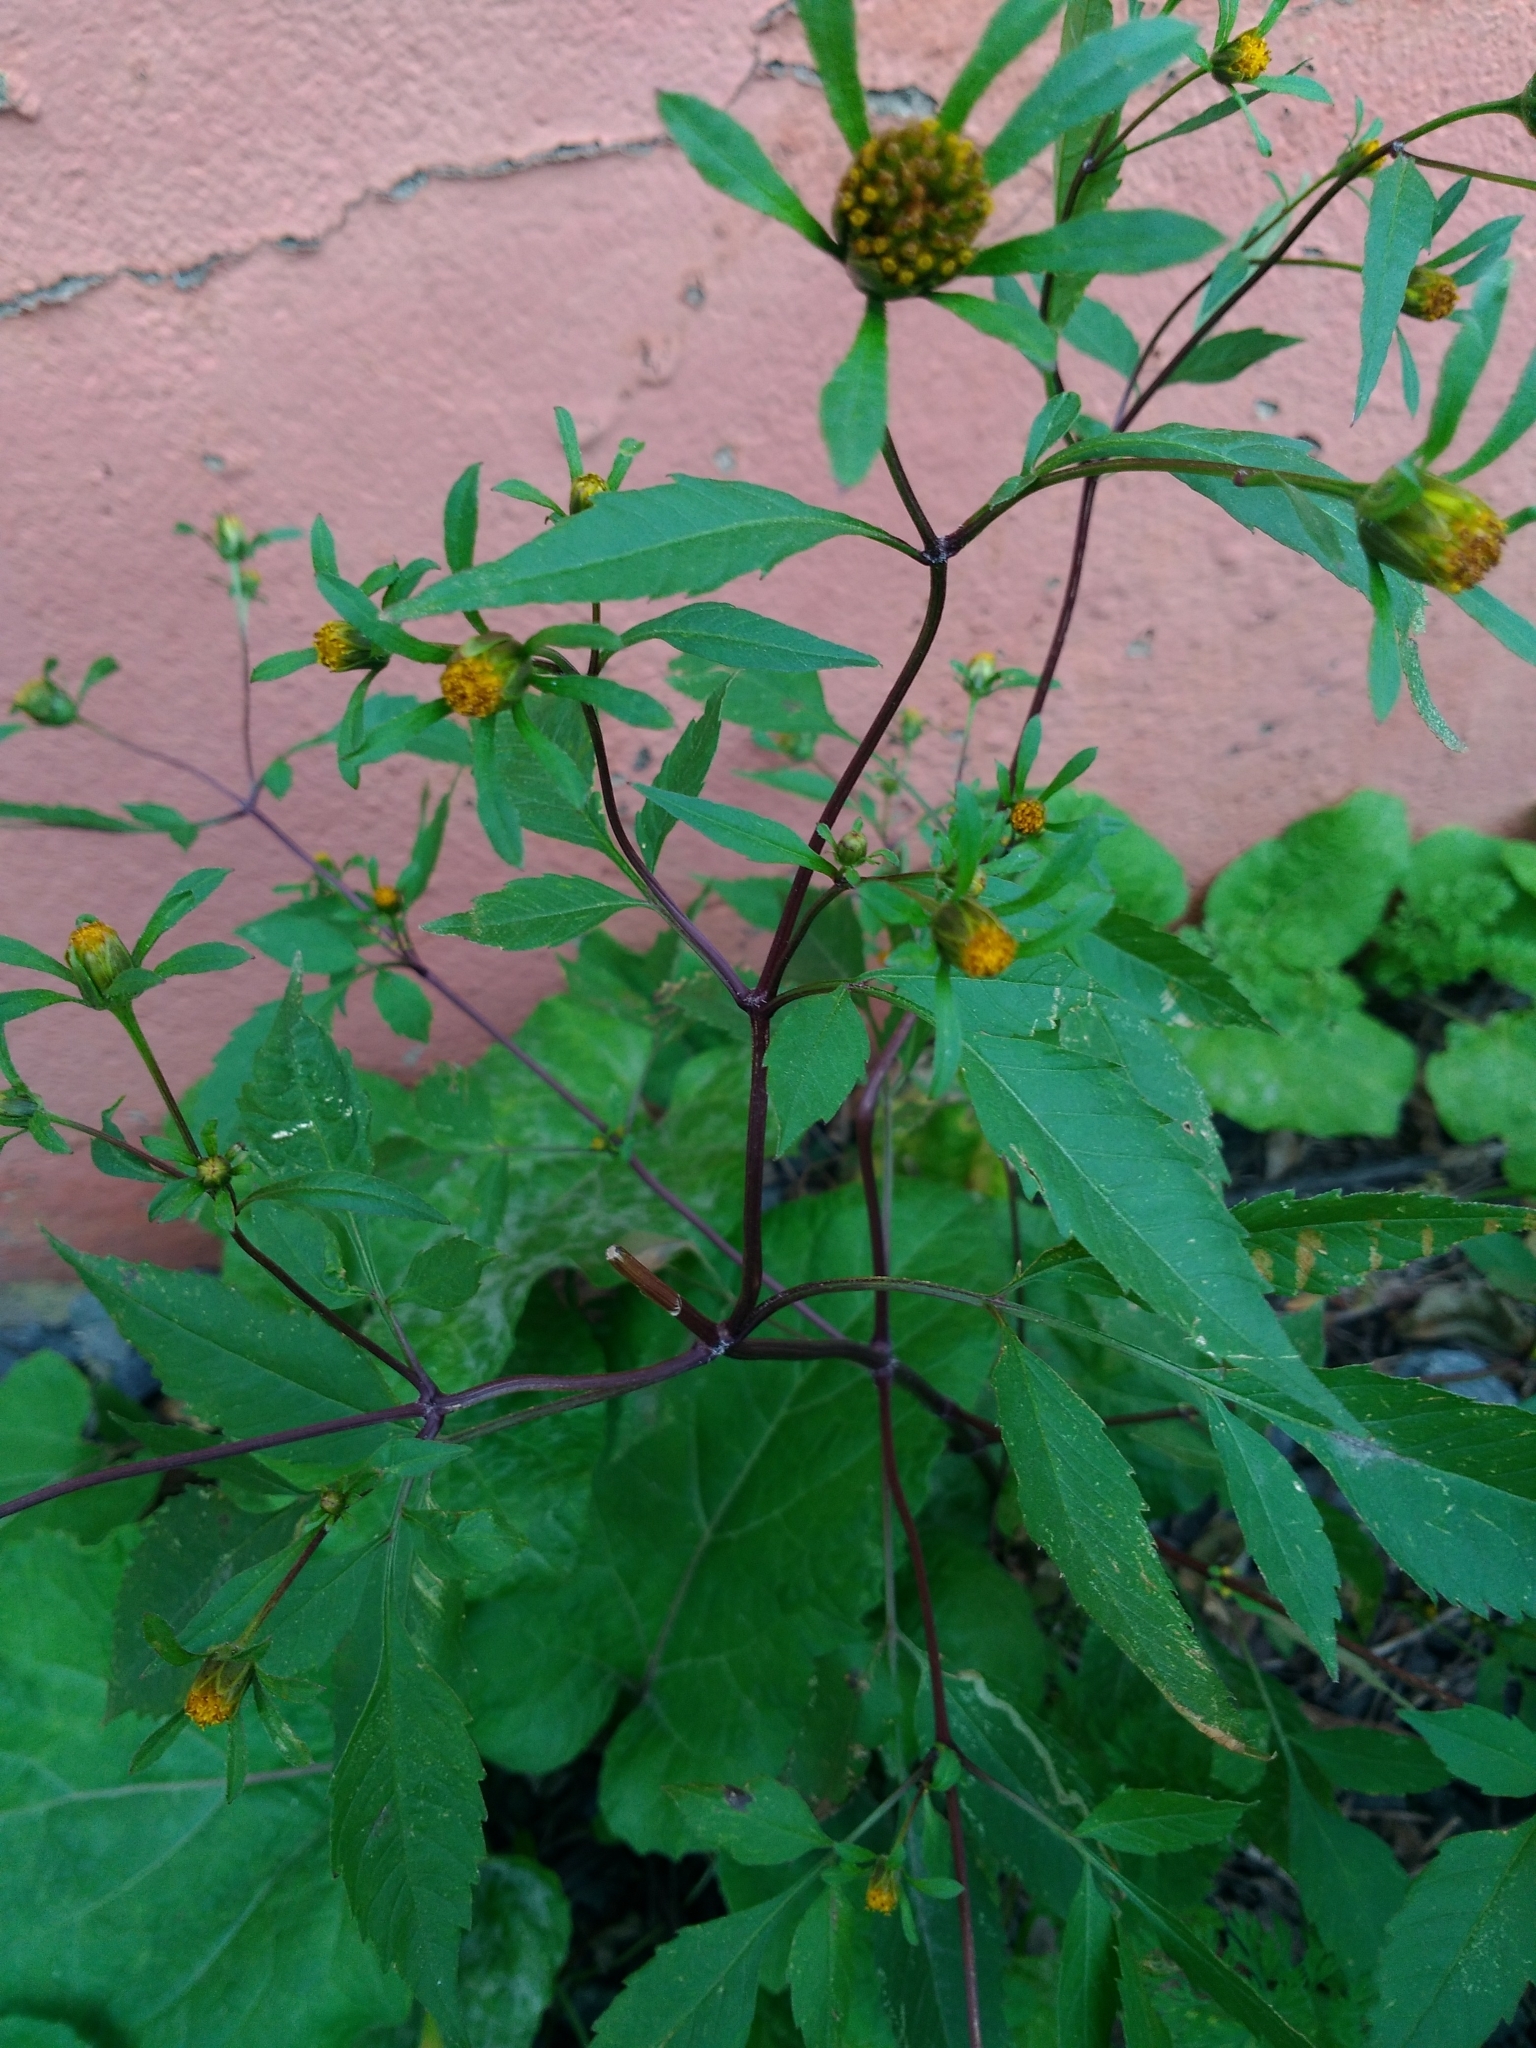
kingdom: Plantae
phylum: Tracheophyta
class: Magnoliopsida
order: Asterales
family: Asteraceae
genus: Bidens
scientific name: Bidens frondosa
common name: Beggarticks
